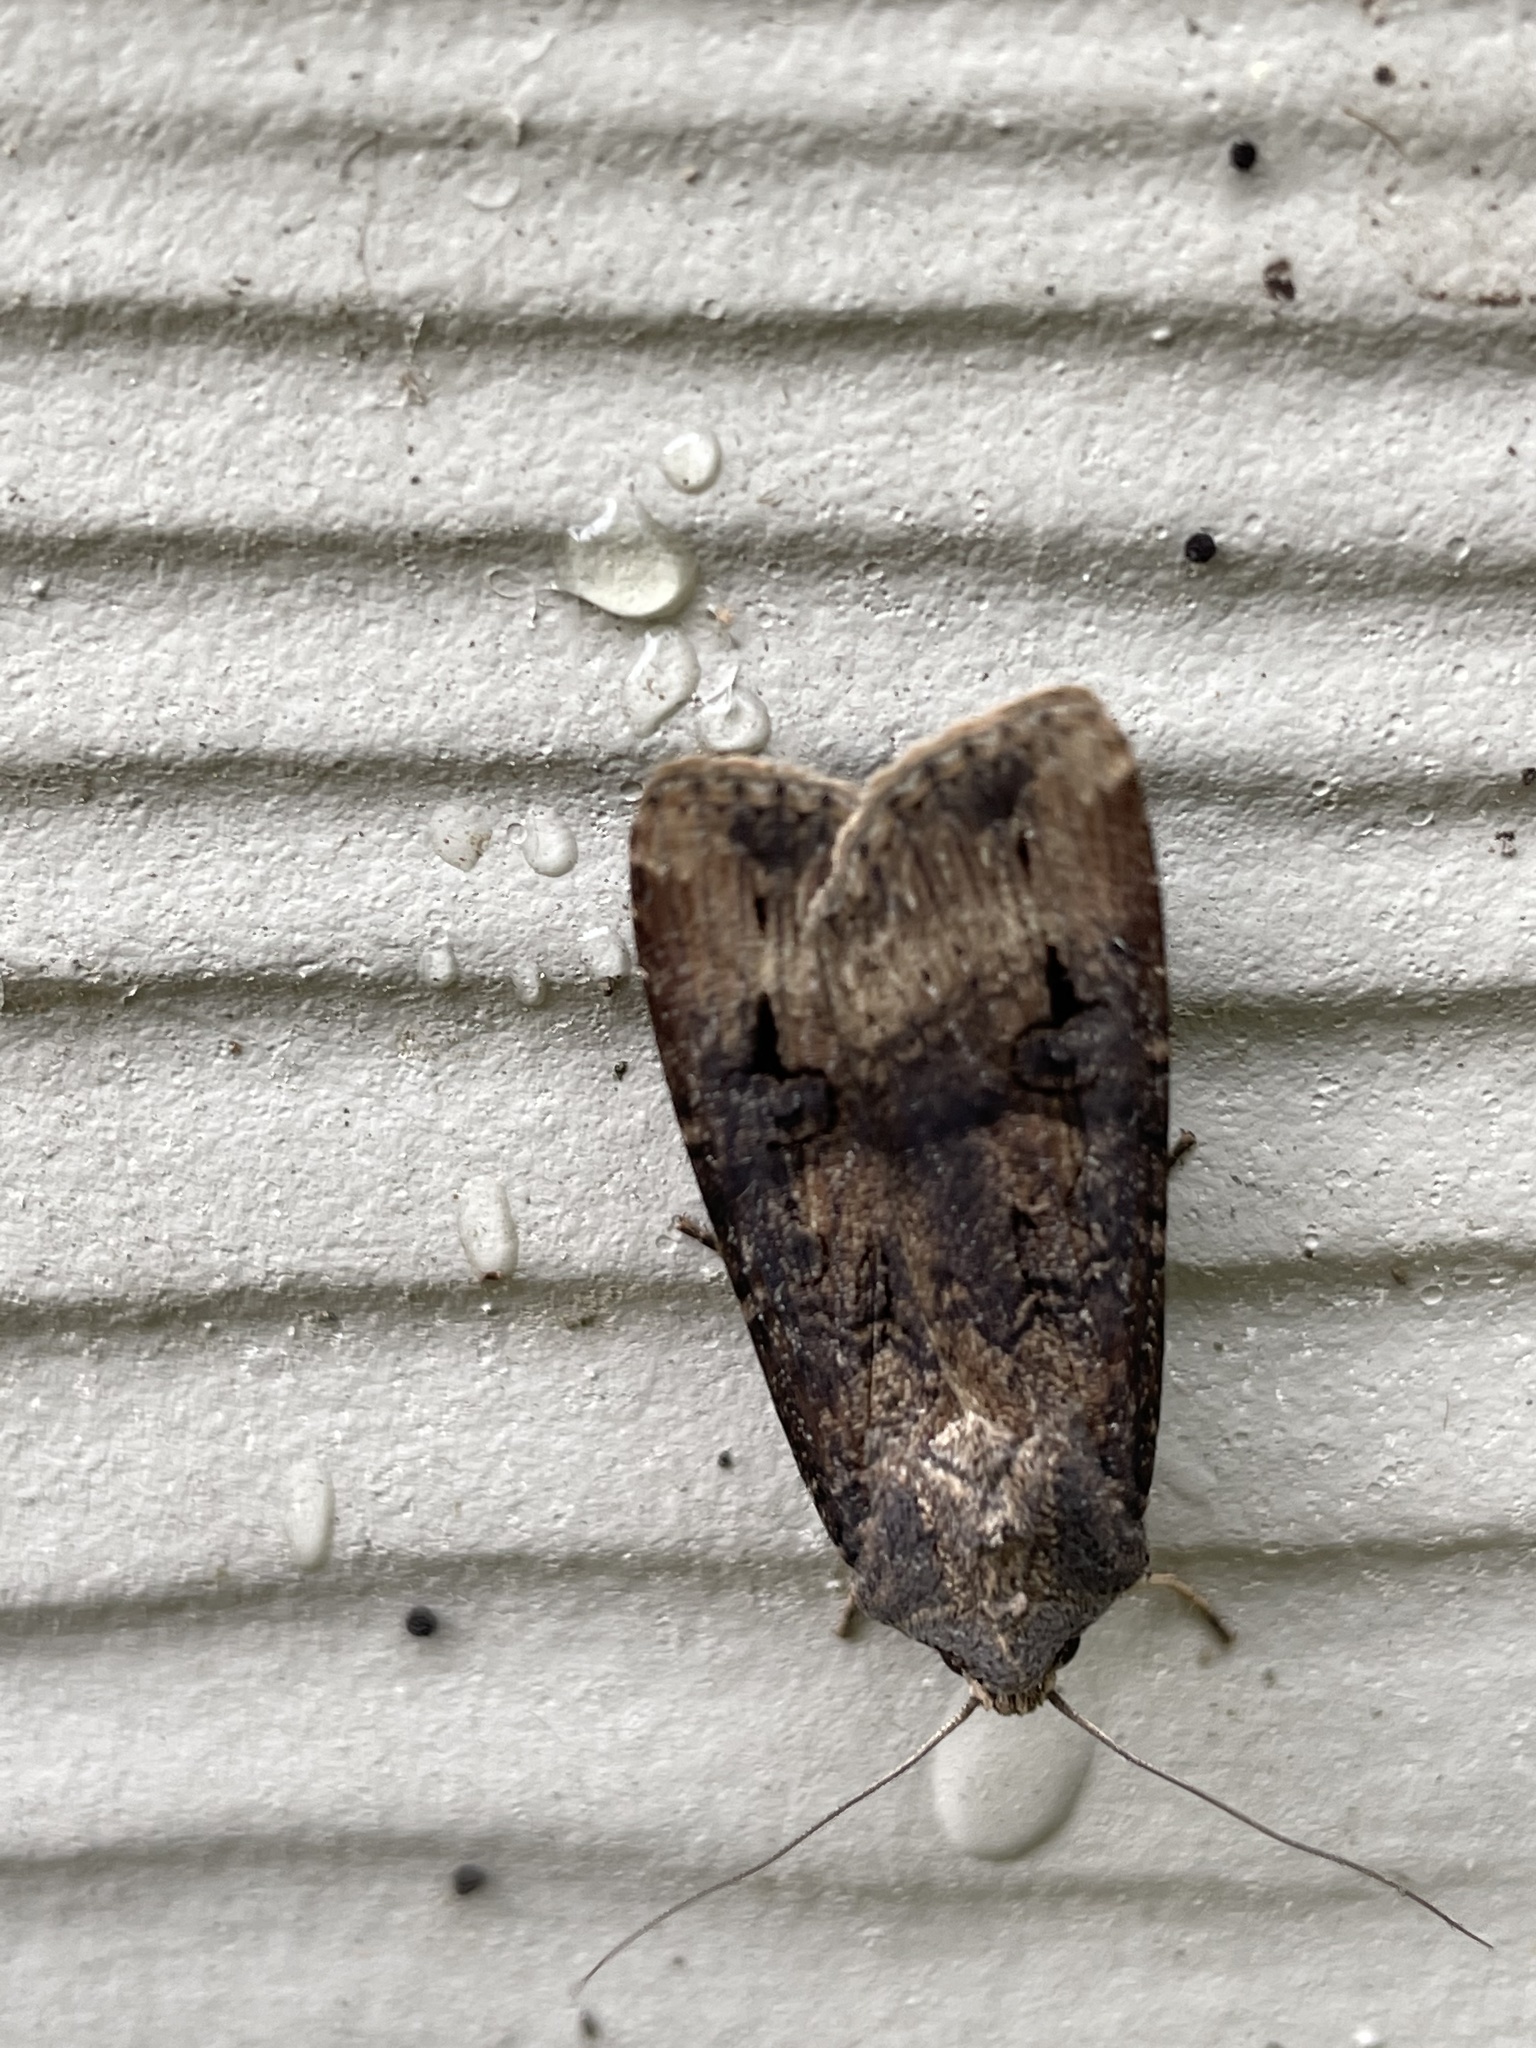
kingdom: Animalia
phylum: Arthropoda
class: Insecta
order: Lepidoptera
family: Noctuidae
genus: Agrotis
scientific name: Agrotis ipsilon
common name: Dark sword-grass
